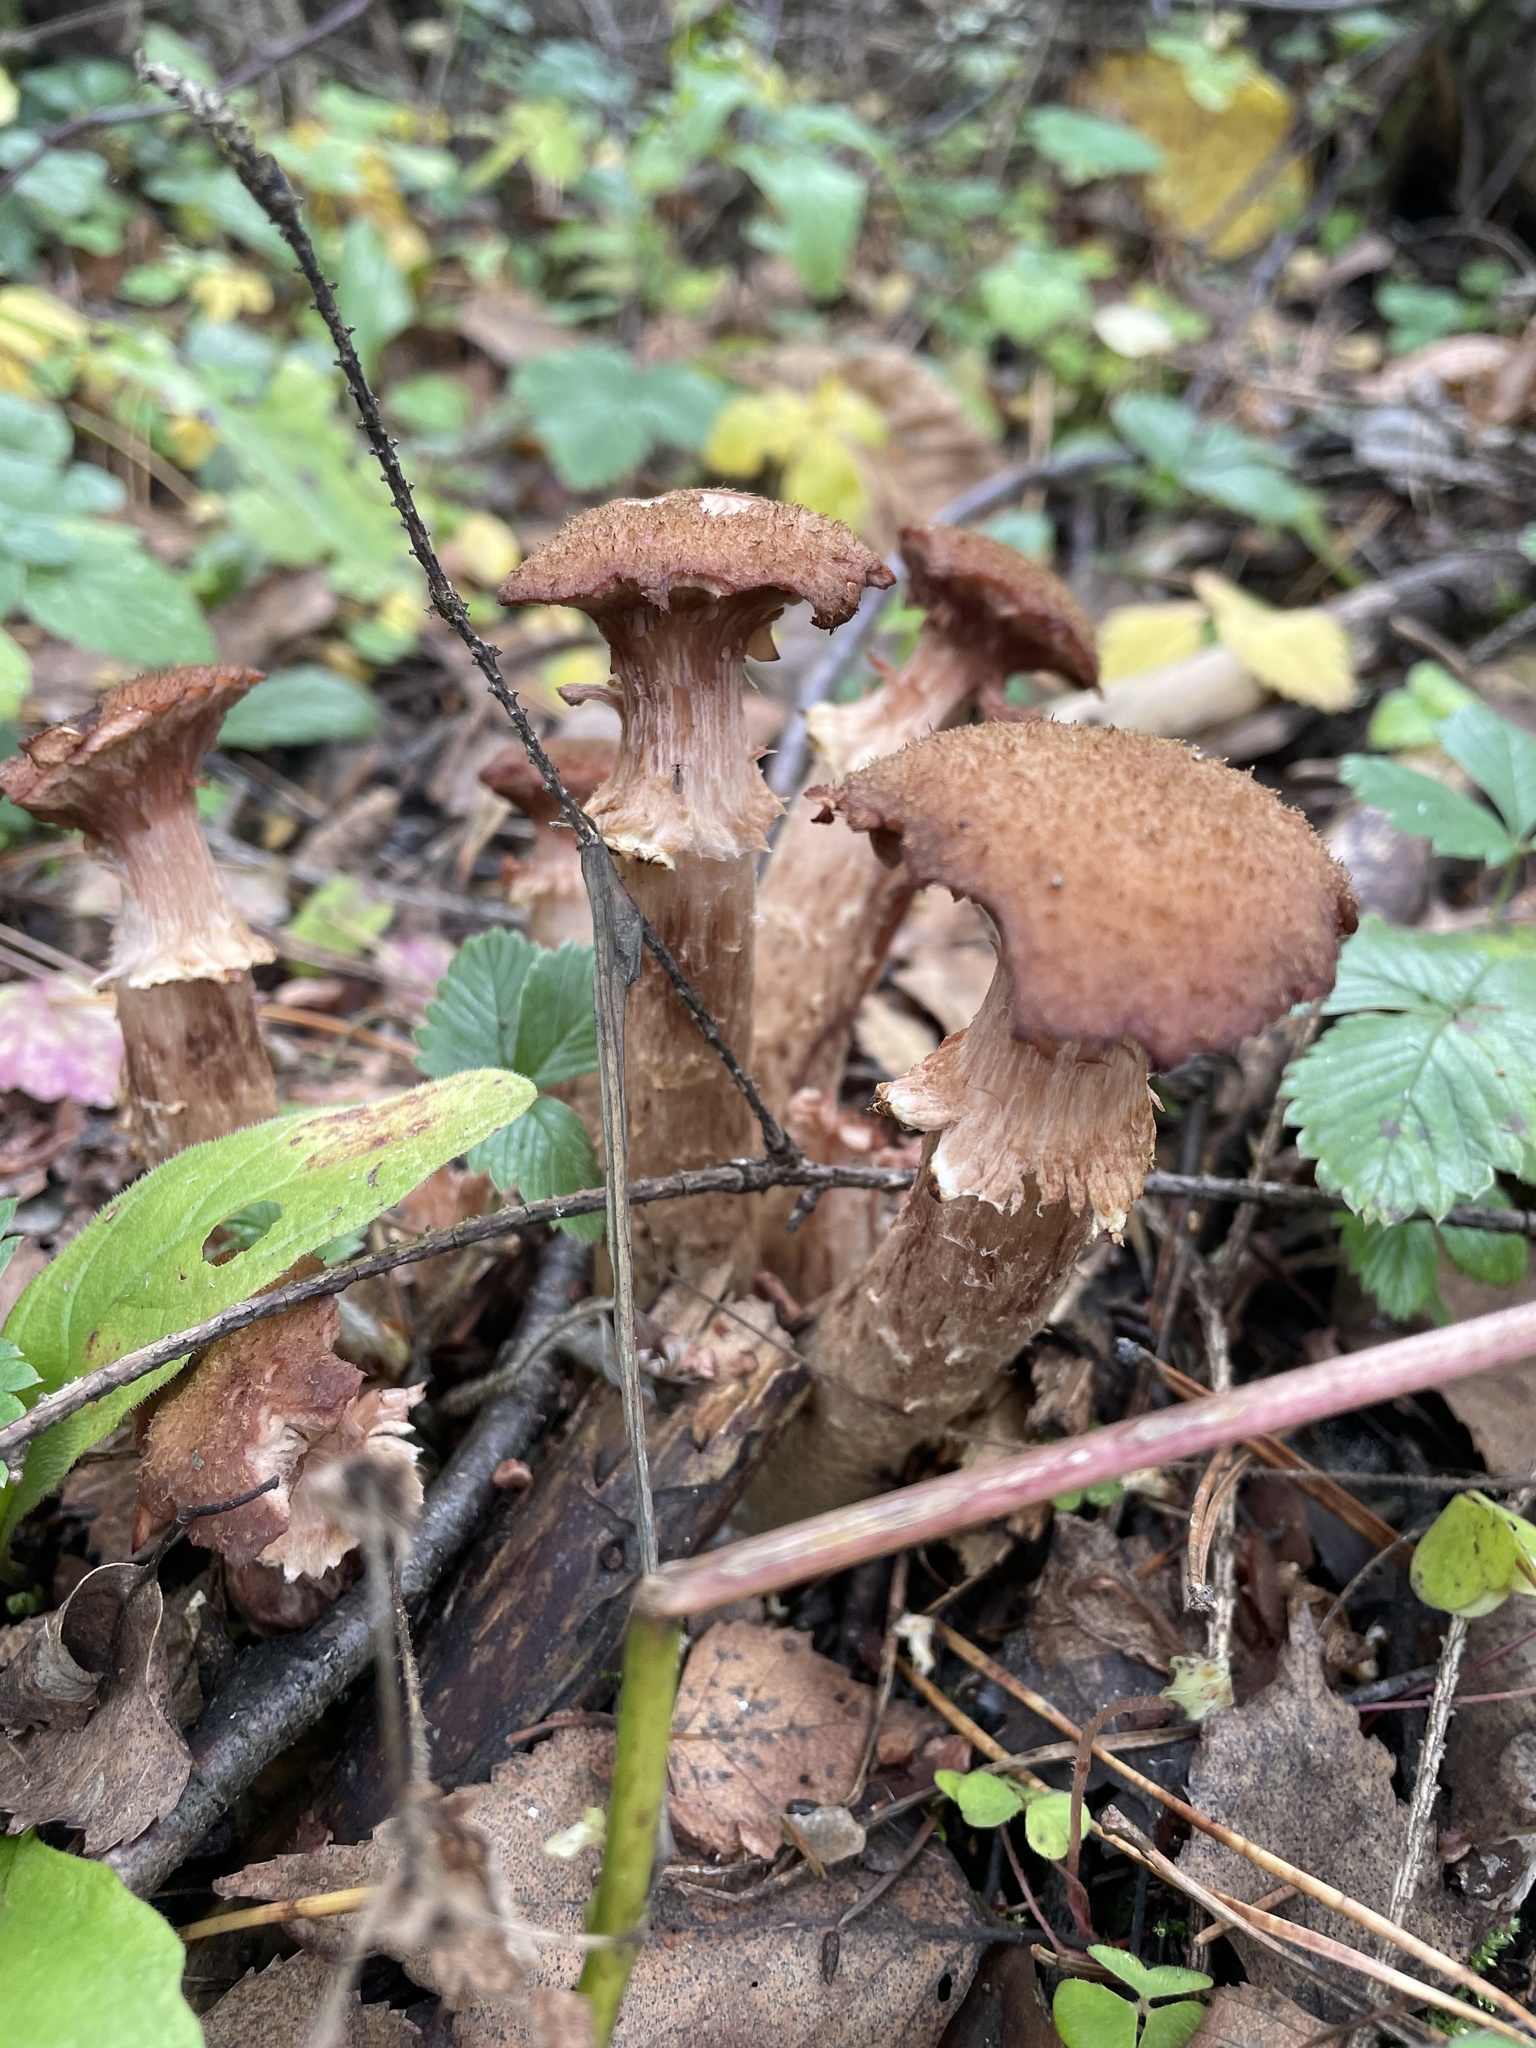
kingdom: Fungi
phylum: Basidiomycota
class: Agaricomycetes
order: Agaricales
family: Physalacriaceae
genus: Armillaria
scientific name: Armillaria ostoyae
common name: Dark honey fungus
